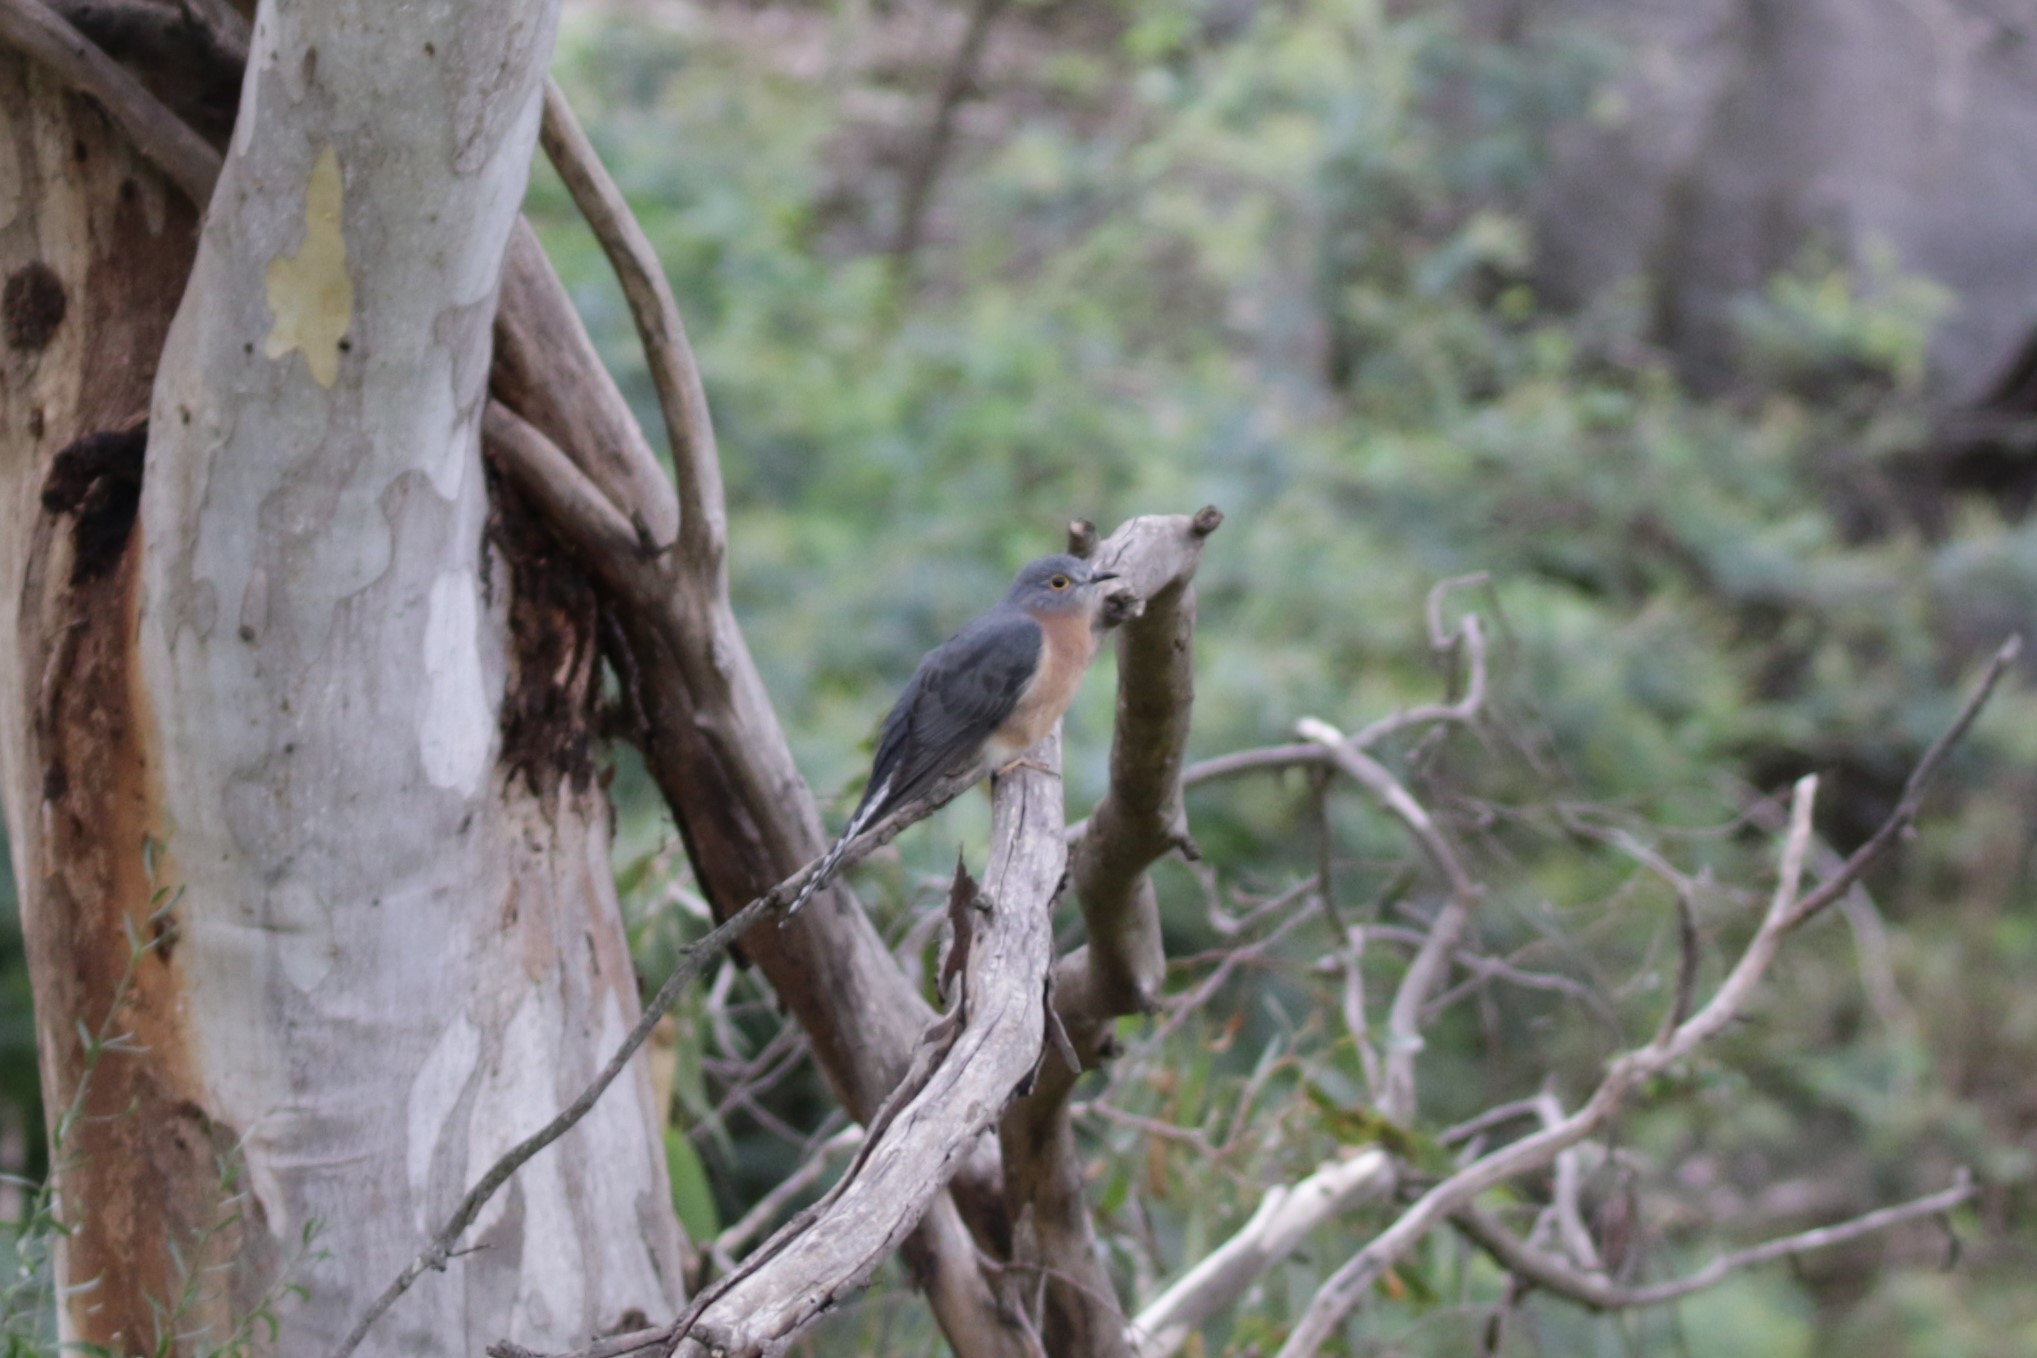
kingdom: Animalia
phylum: Chordata
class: Aves
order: Cuculiformes
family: Cuculidae
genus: Cacomantis
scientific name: Cacomantis flabelliformis
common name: Fan-tailed cuckoo
